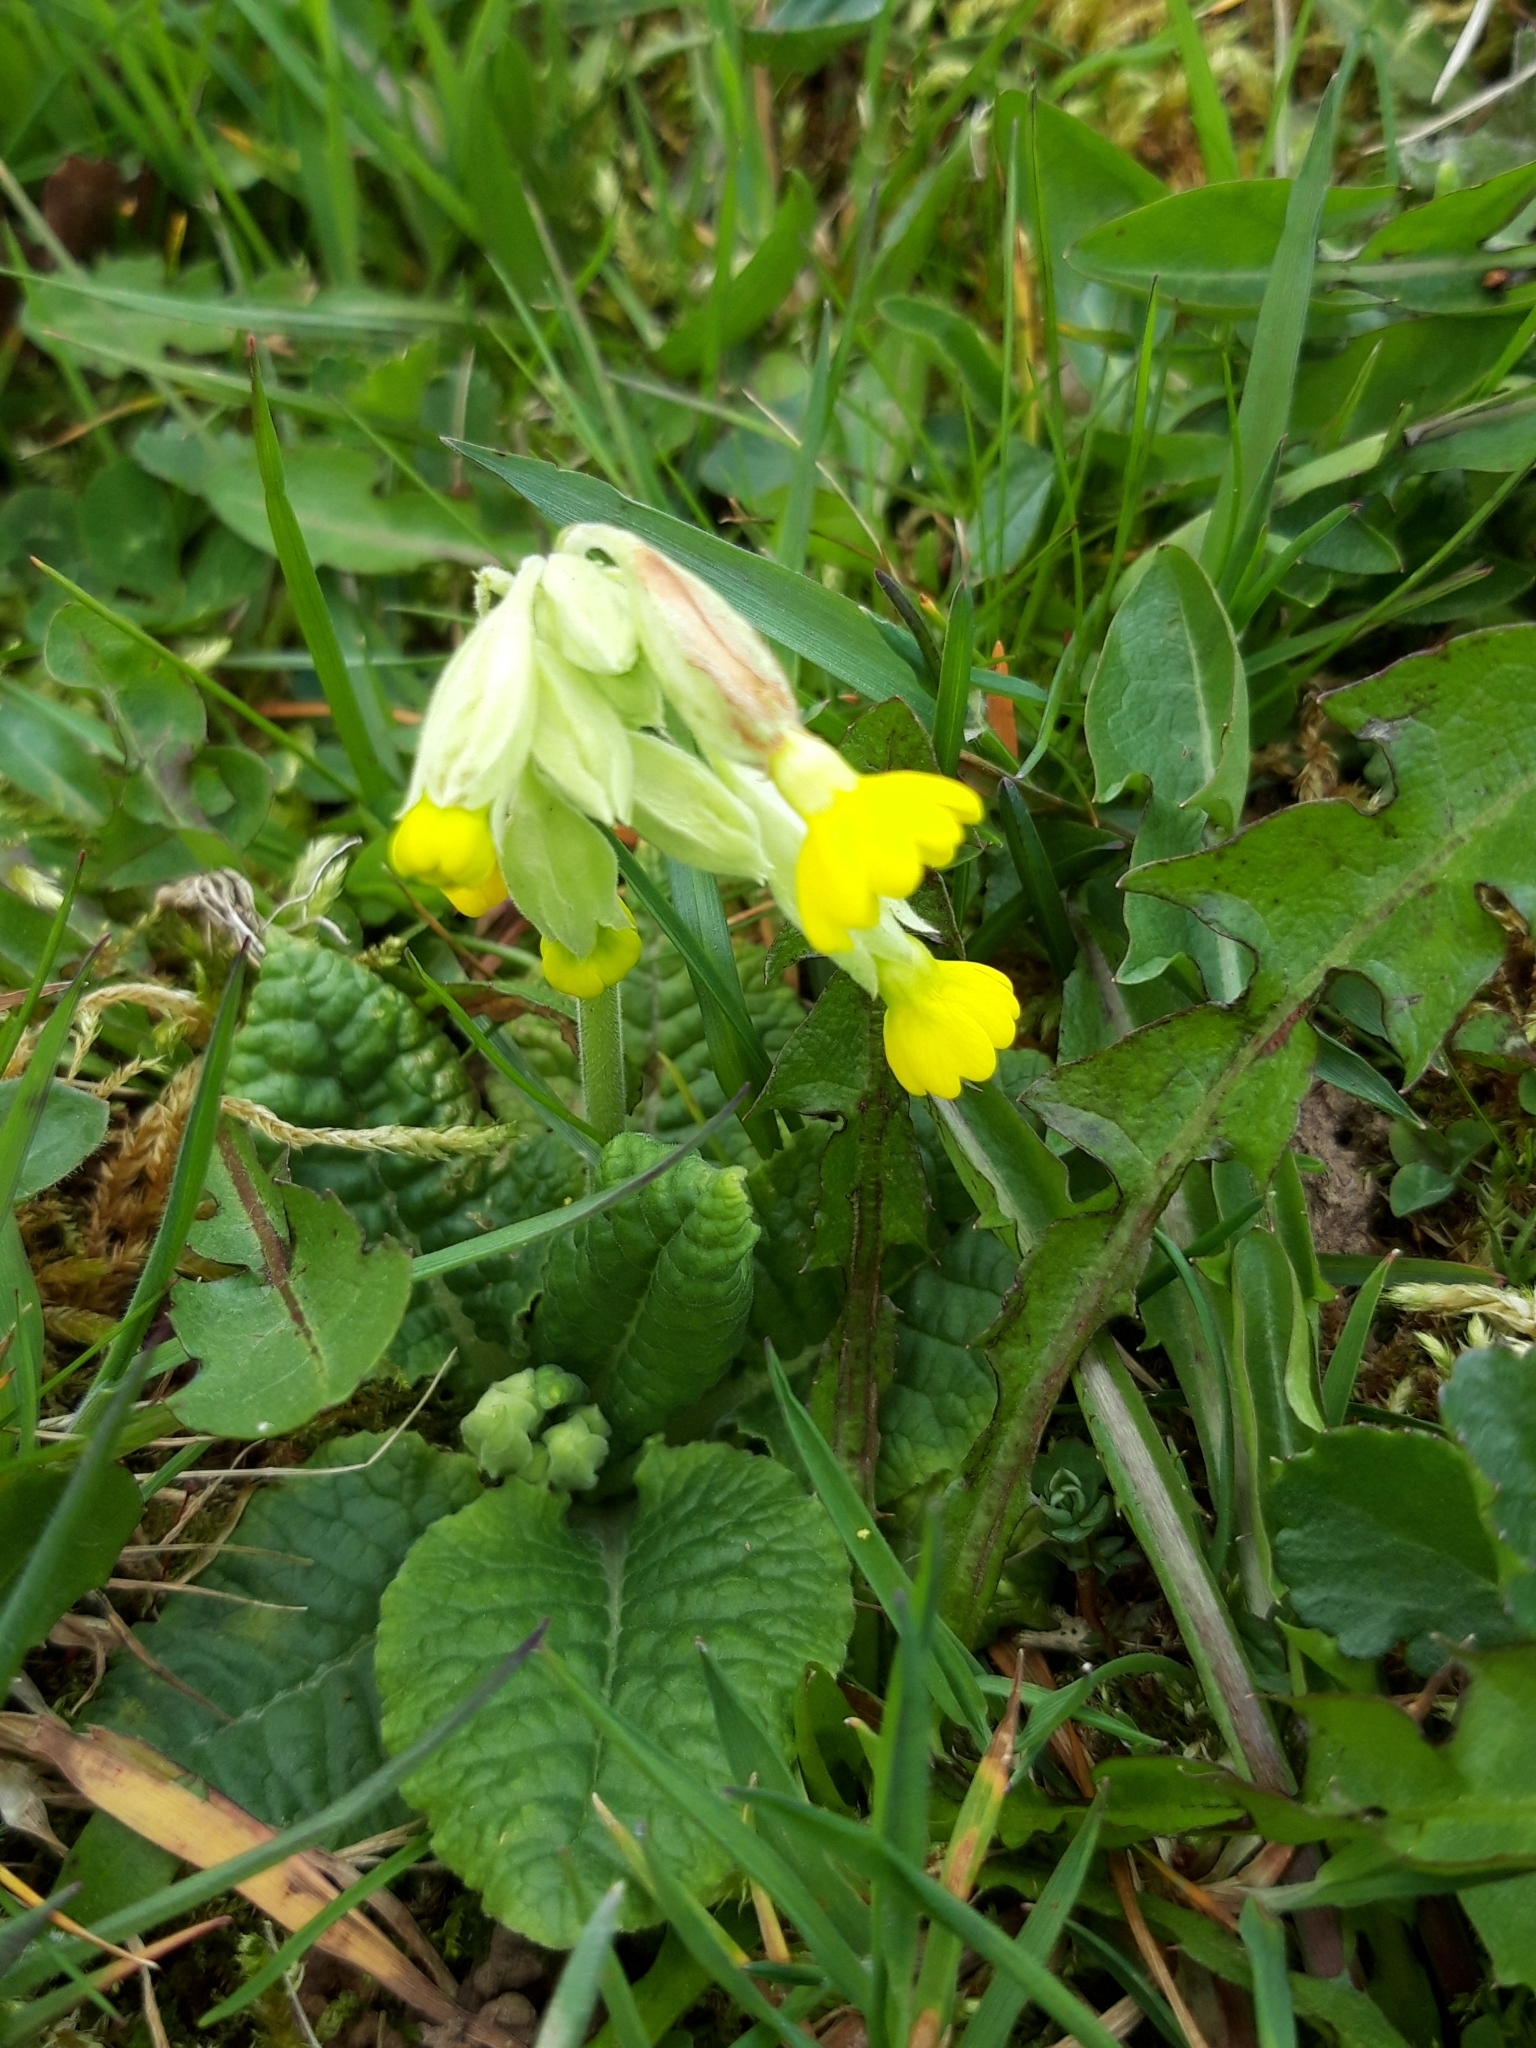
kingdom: Plantae
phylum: Tracheophyta
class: Magnoliopsida
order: Ericales
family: Primulaceae
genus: Primula
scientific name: Primula veris
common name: Cowslip
